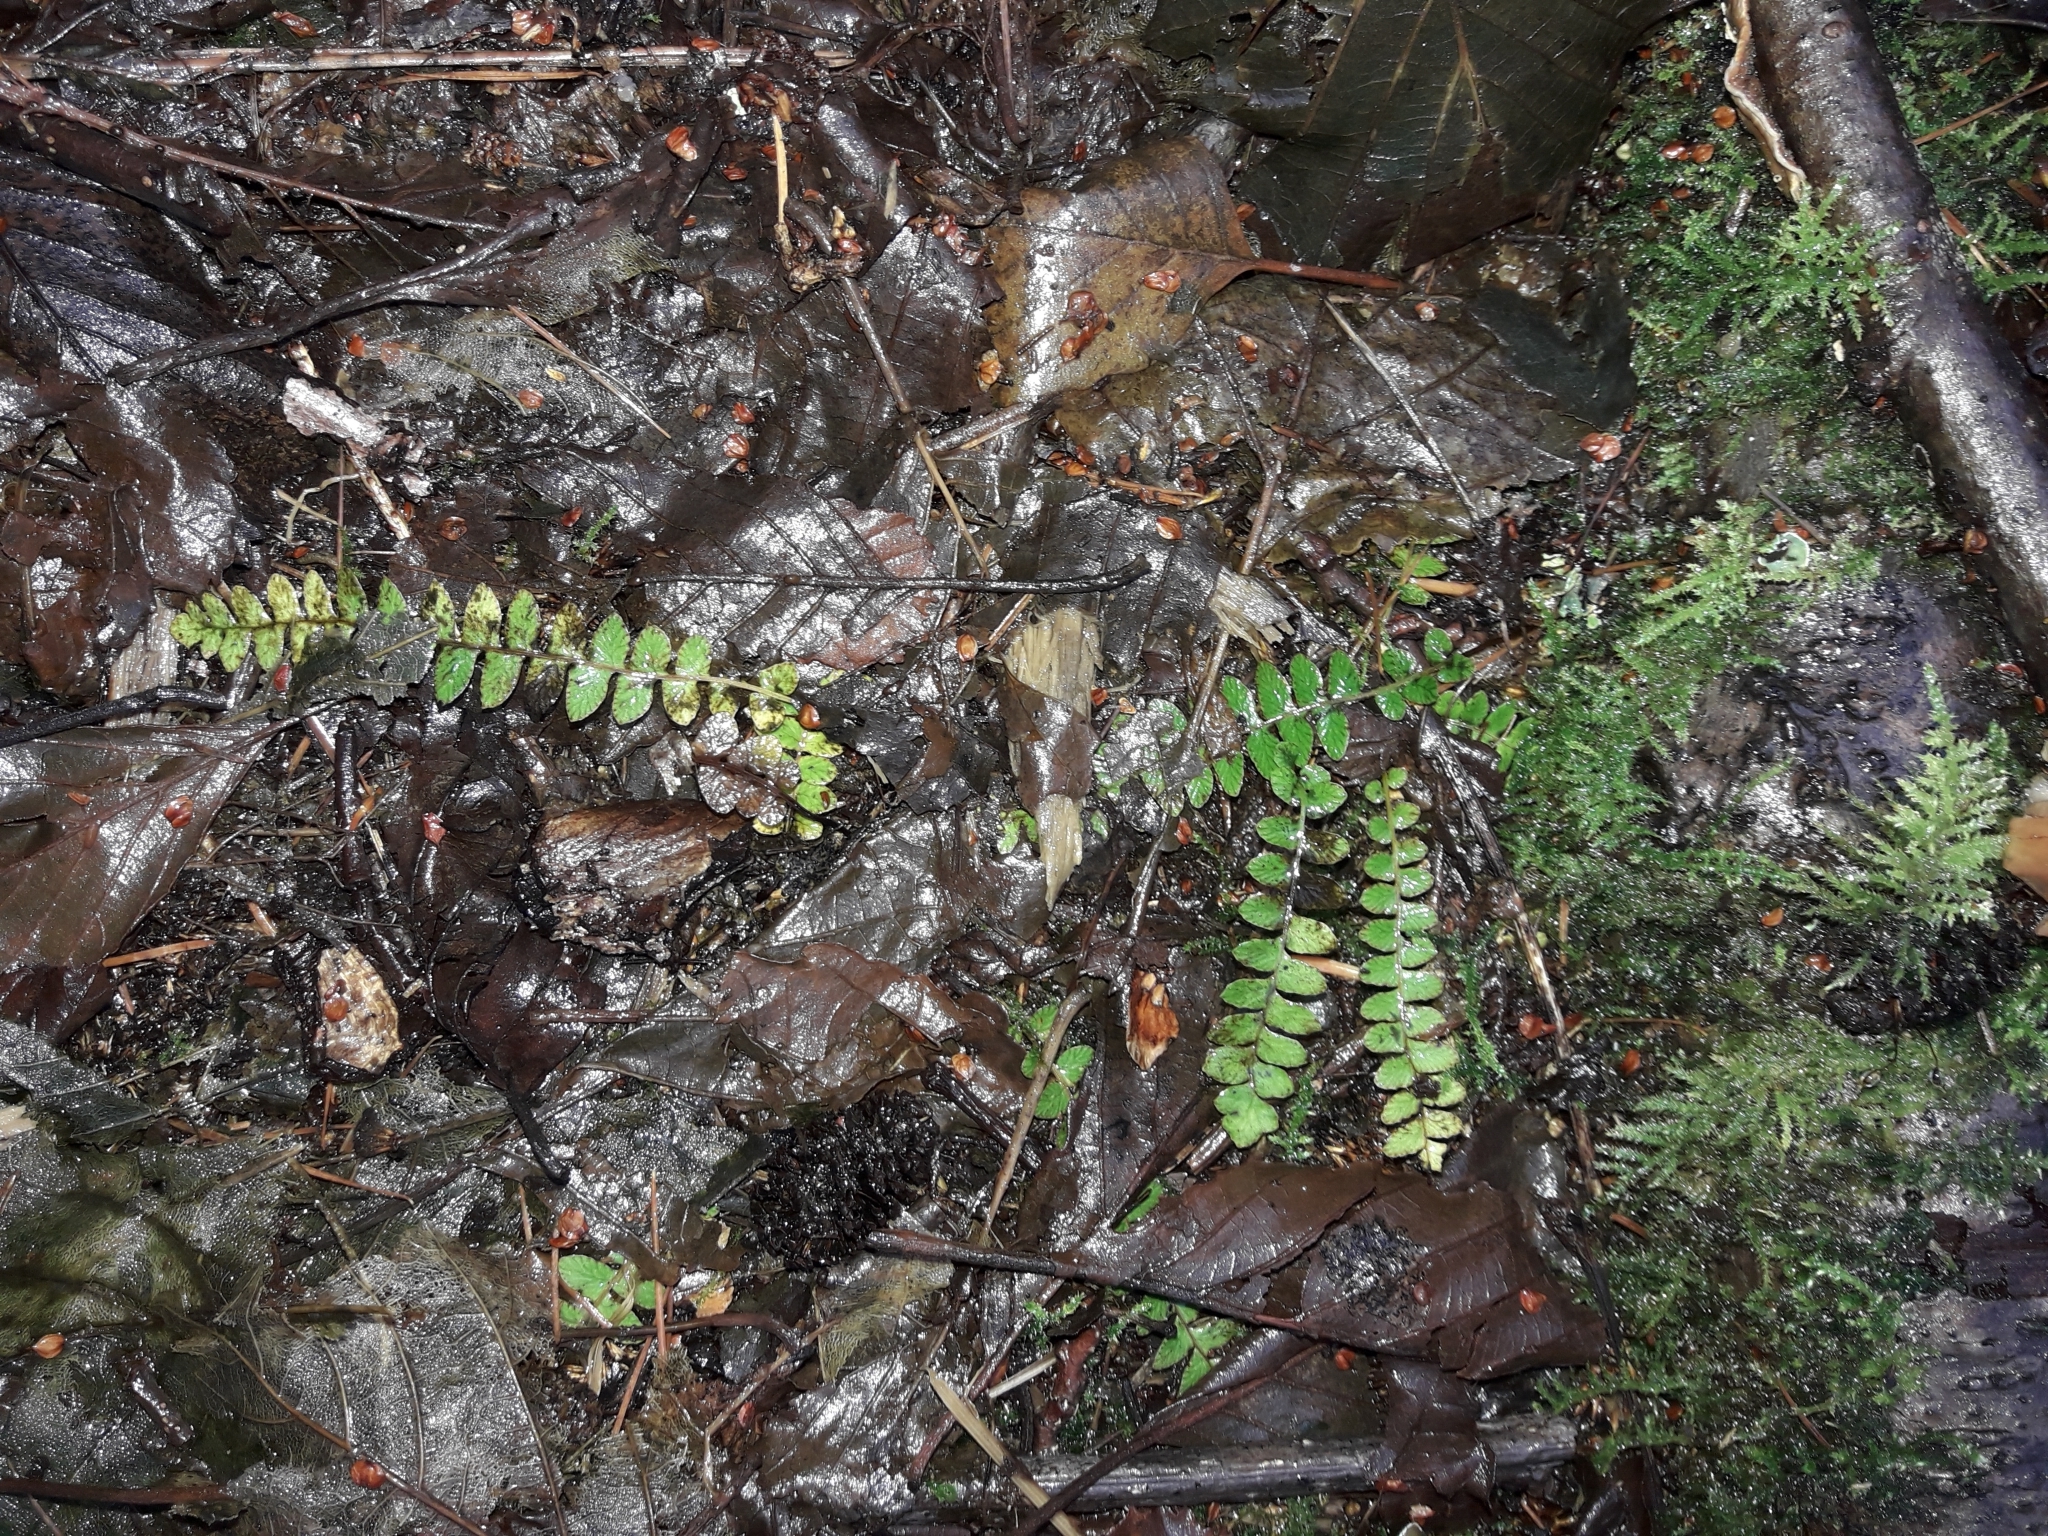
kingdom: Plantae
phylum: Tracheophyta
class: Polypodiopsida
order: Polypodiales
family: Blechnaceae
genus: Austroblechnum
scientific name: Austroblechnum penna-marina
